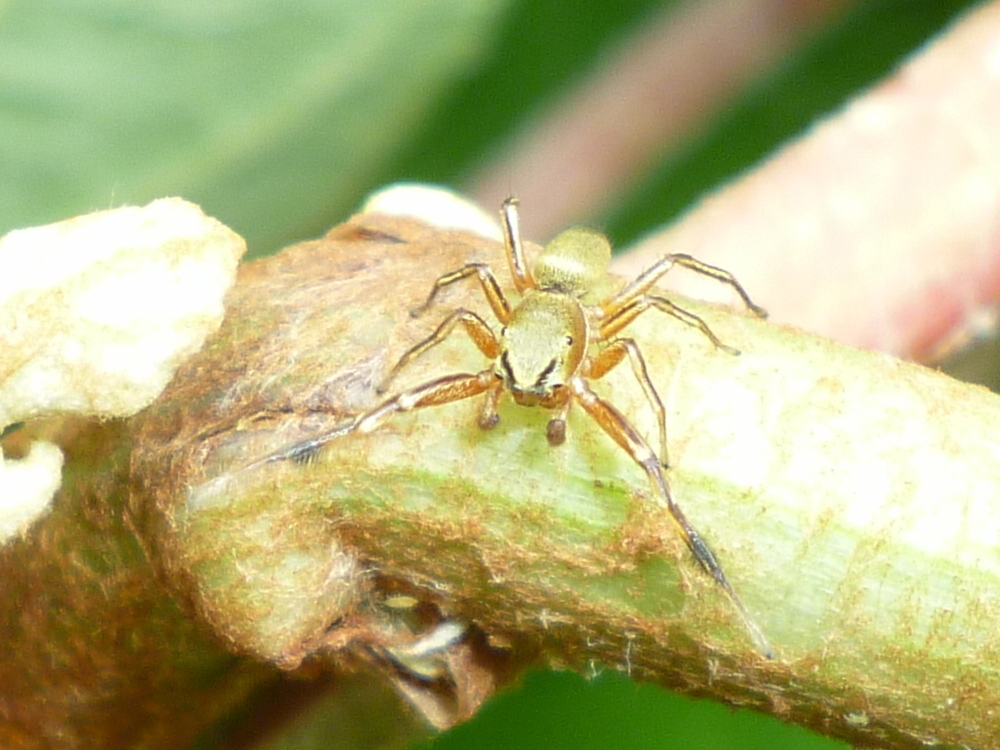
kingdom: Animalia
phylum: Arthropoda
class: Arachnida
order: Araneae
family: Salticidae
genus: Tutelina
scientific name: Tutelina elegans
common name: Thin-spined jumping spider
